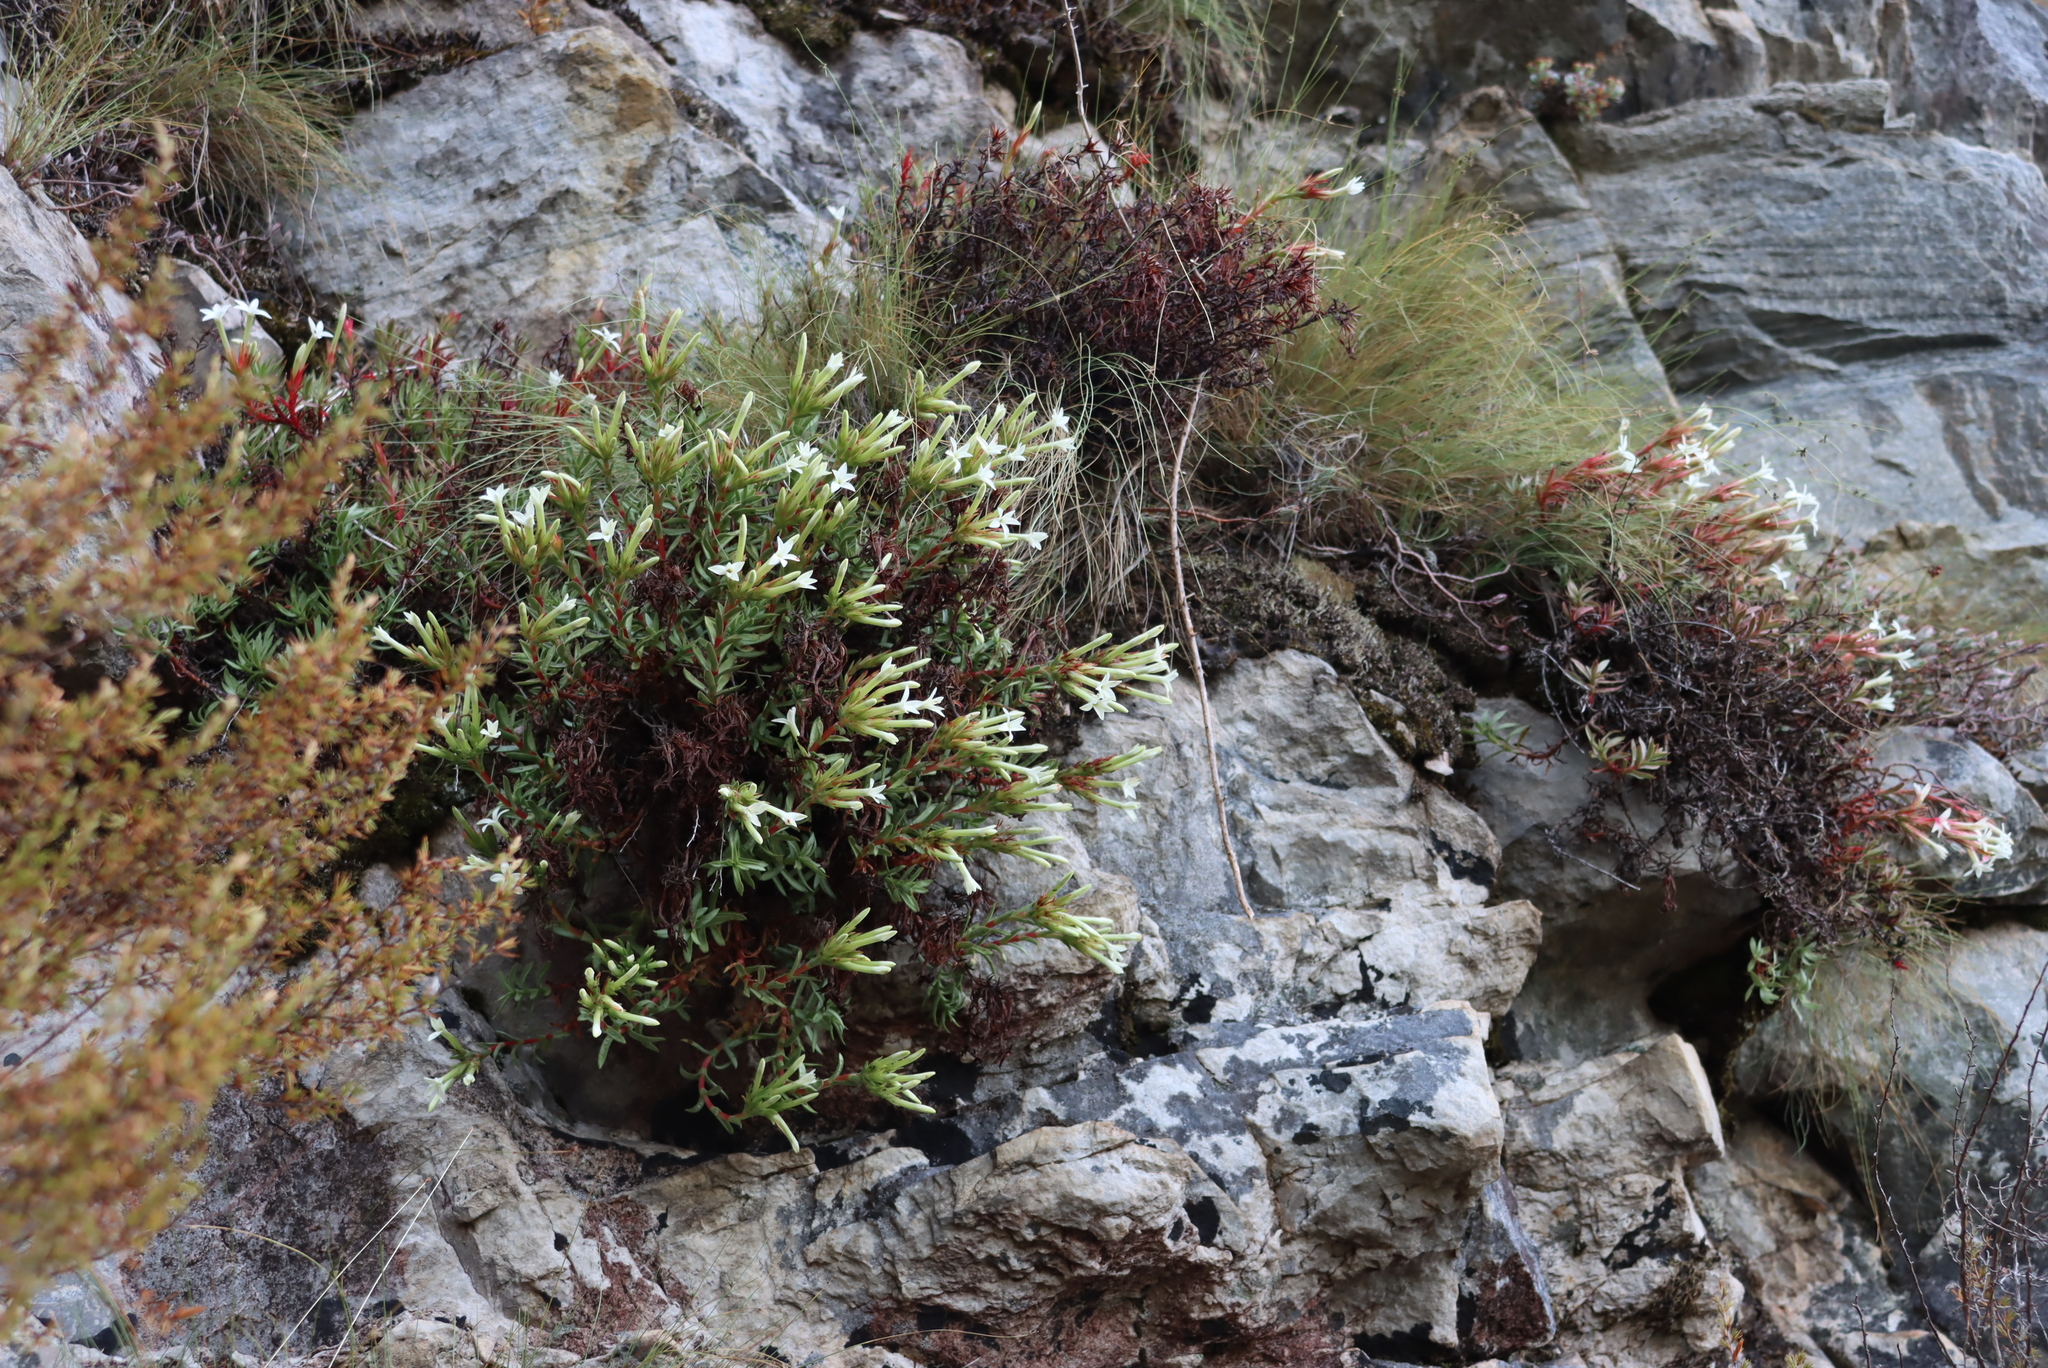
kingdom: Plantae
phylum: Tracheophyta
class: Magnoliopsida
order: Saxifragales
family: Crassulaceae
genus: Crassula
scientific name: Crassula obtusa
